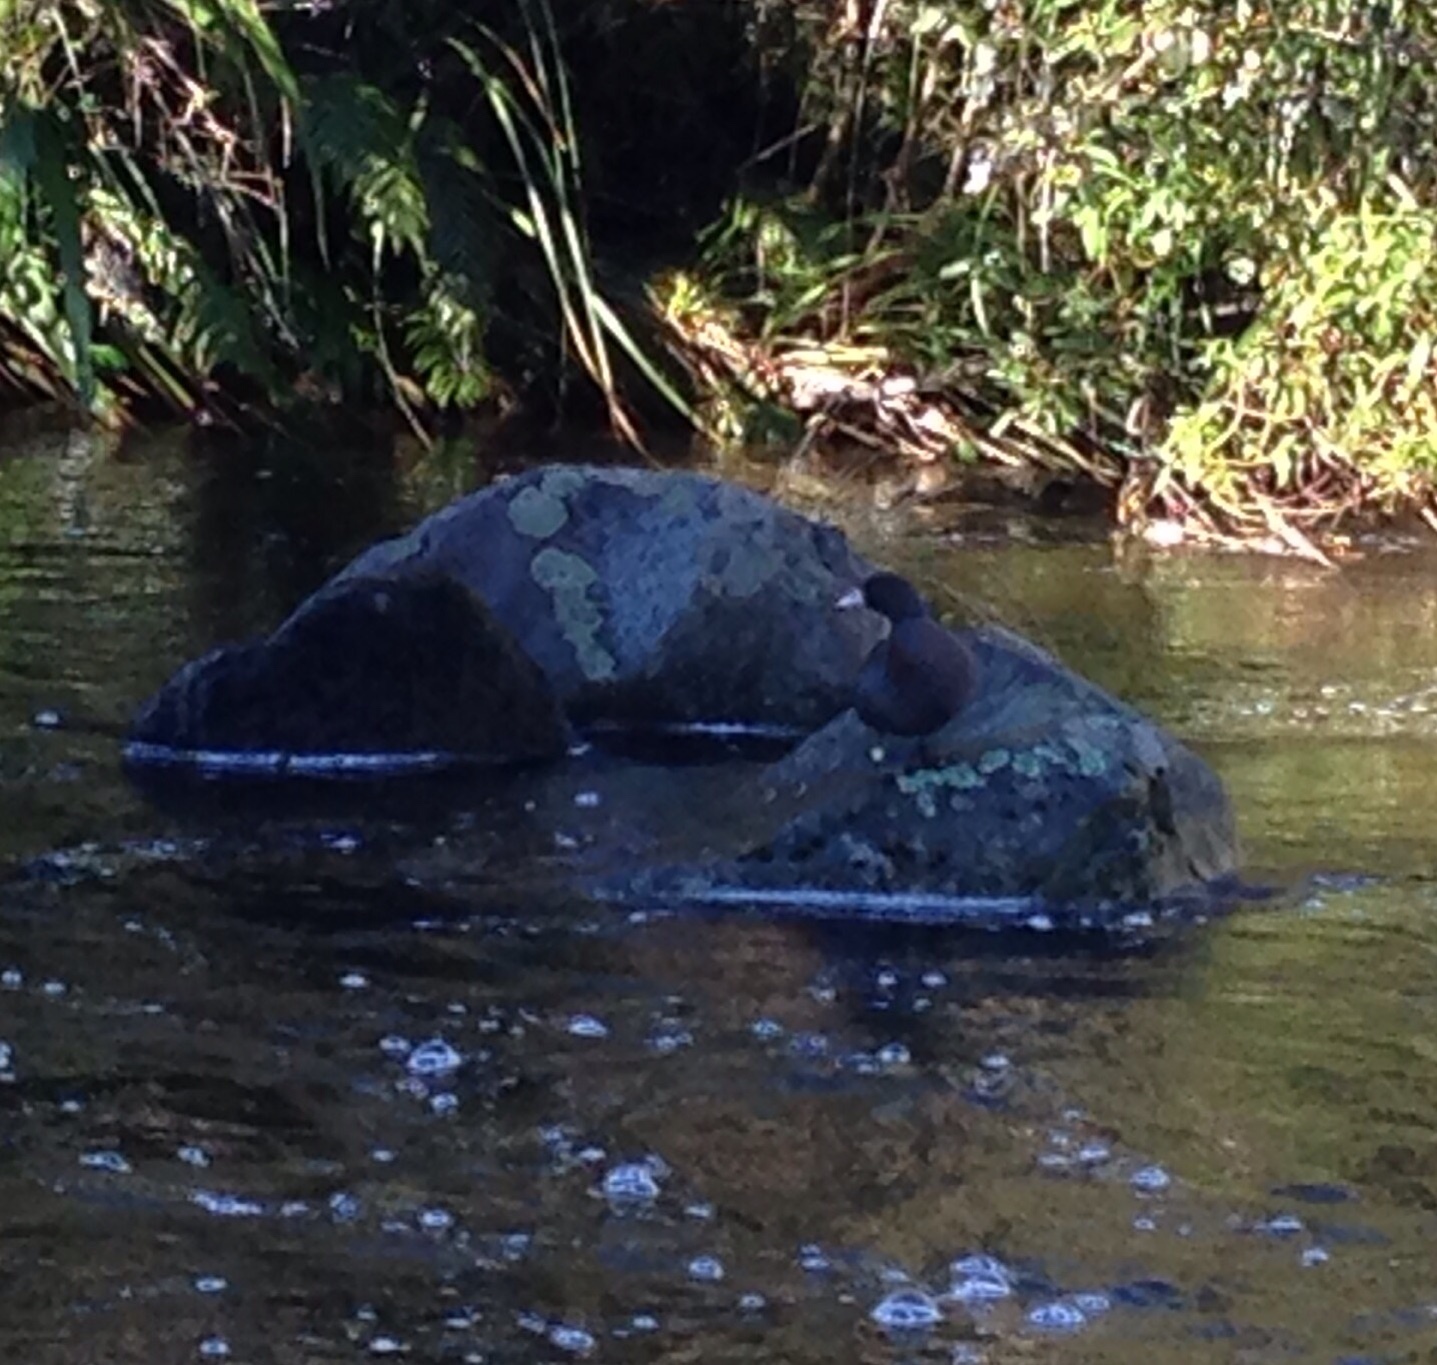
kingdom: Animalia
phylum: Chordata
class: Aves
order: Anseriformes
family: Anatidae
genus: Hymenolaimus
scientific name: Hymenolaimus malacorhynchos
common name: Blue duck
